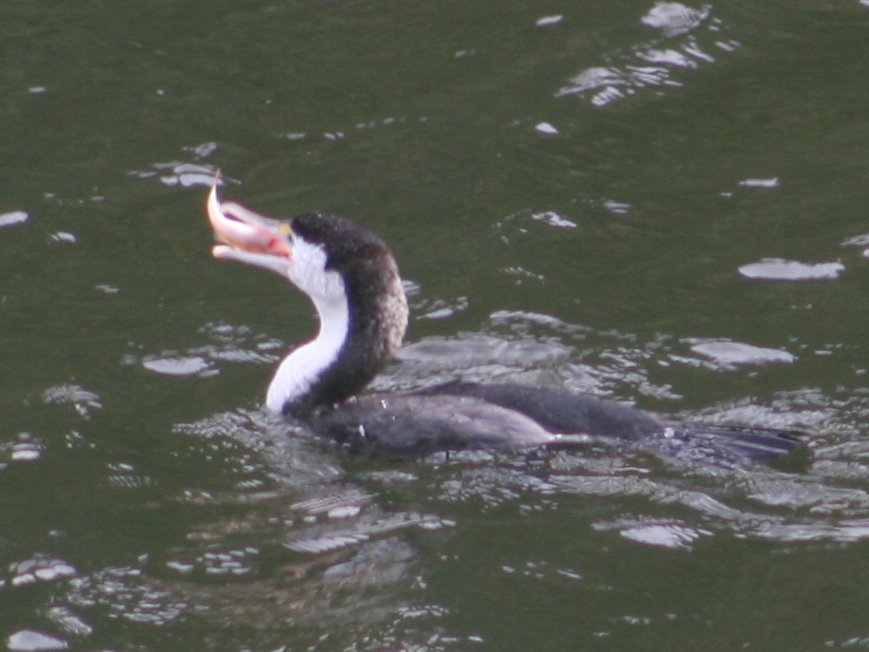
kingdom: Animalia
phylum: Chordata
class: Aves
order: Suliformes
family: Phalacrocoracidae
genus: Phalacrocorax
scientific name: Phalacrocorax varius
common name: Pied cormorant
